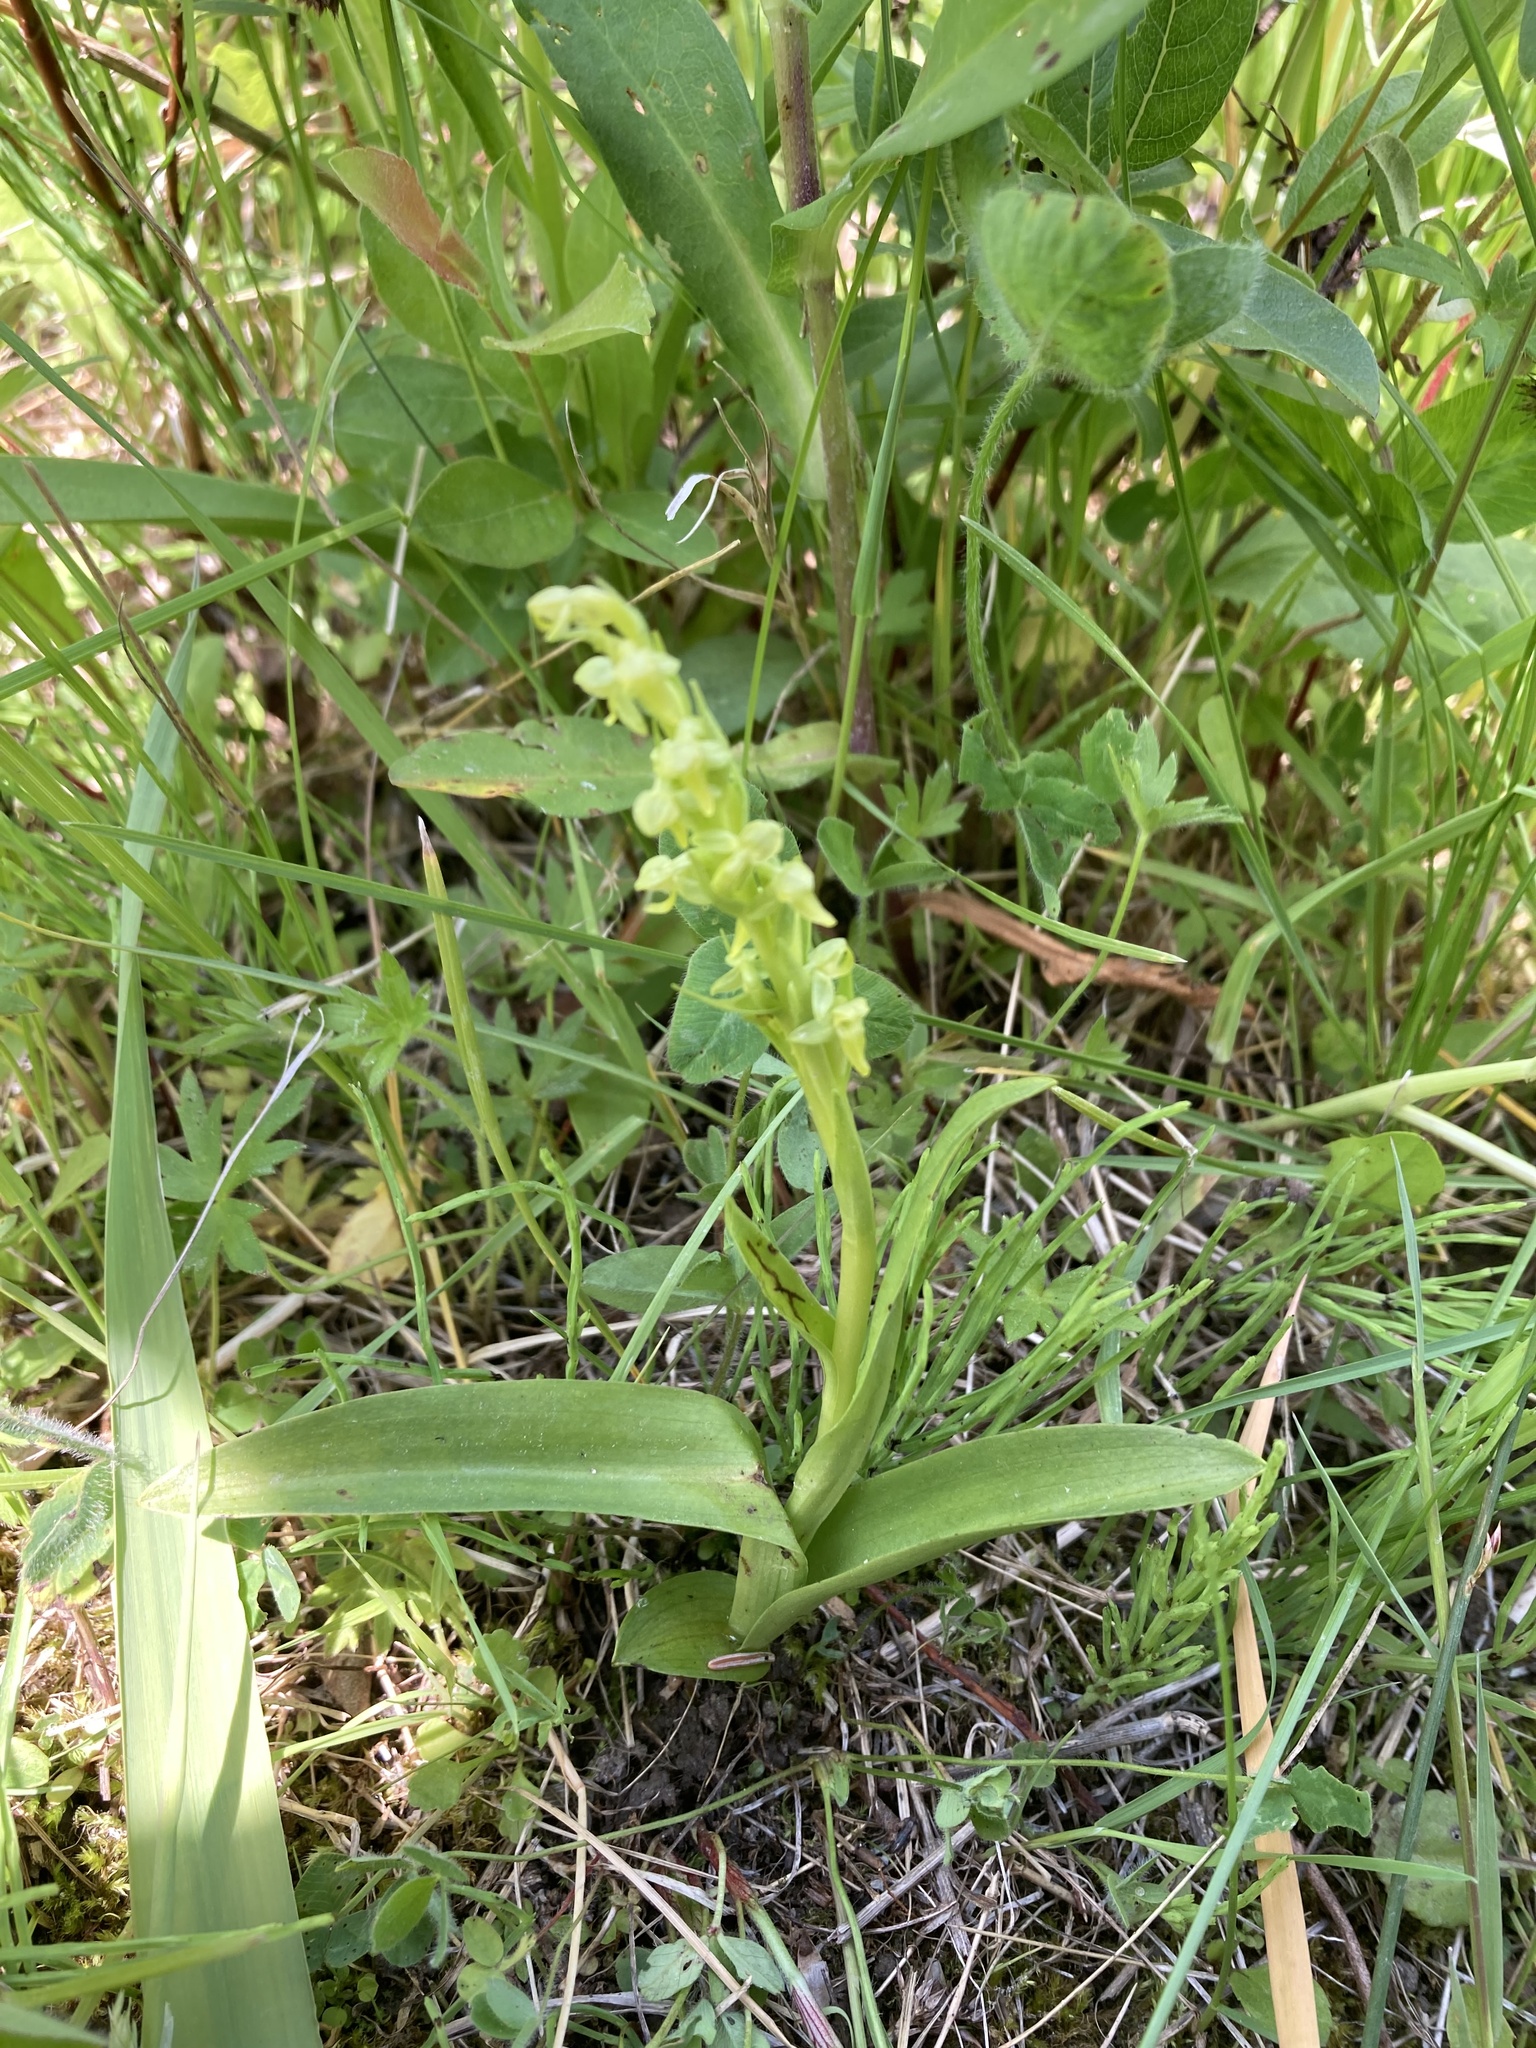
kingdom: Plantae
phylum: Tracheophyta
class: Liliopsida
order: Asparagales
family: Orchidaceae
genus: Platanthera
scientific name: Platanthera aquilonis
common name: Northern green orchid
